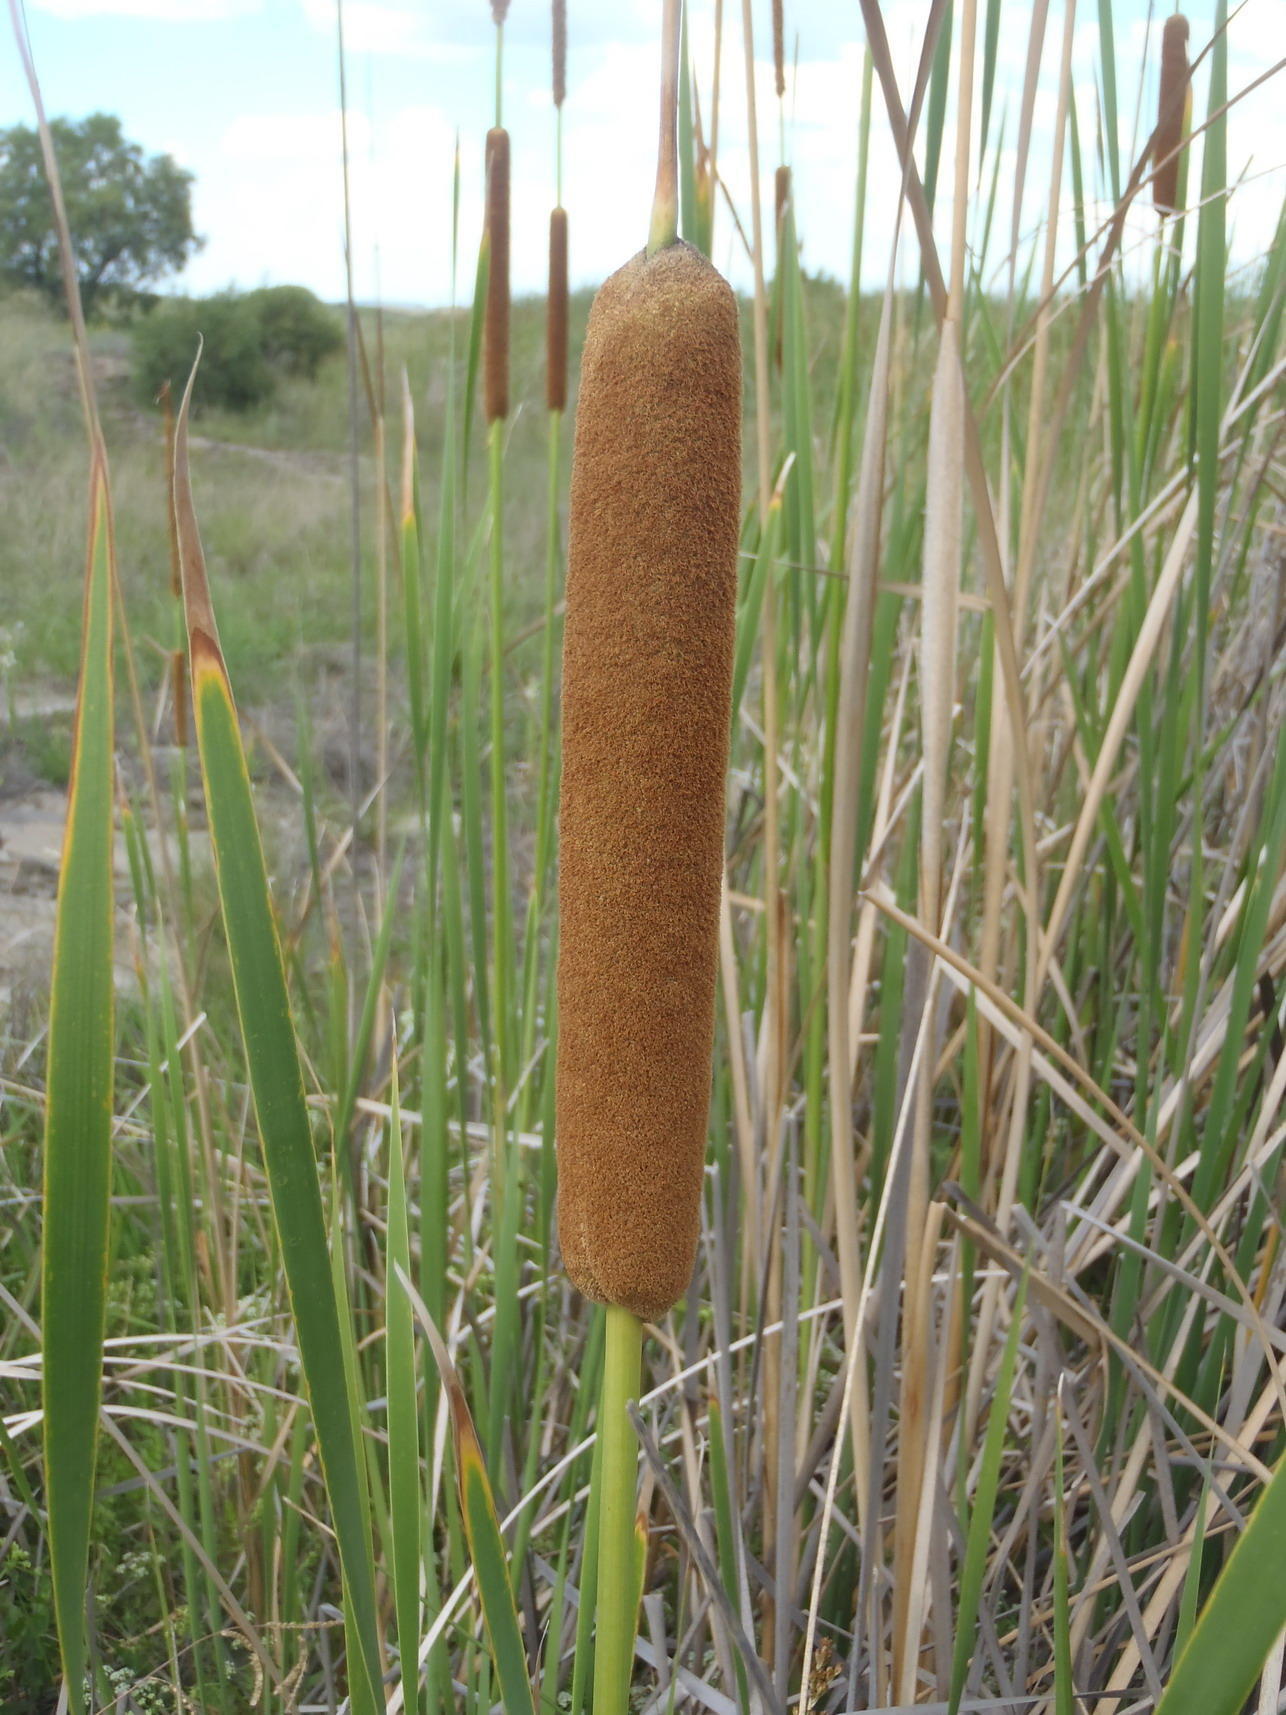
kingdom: Plantae
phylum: Tracheophyta
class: Liliopsida
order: Poales
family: Typhaceae
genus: Typha
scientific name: Typha capensis
